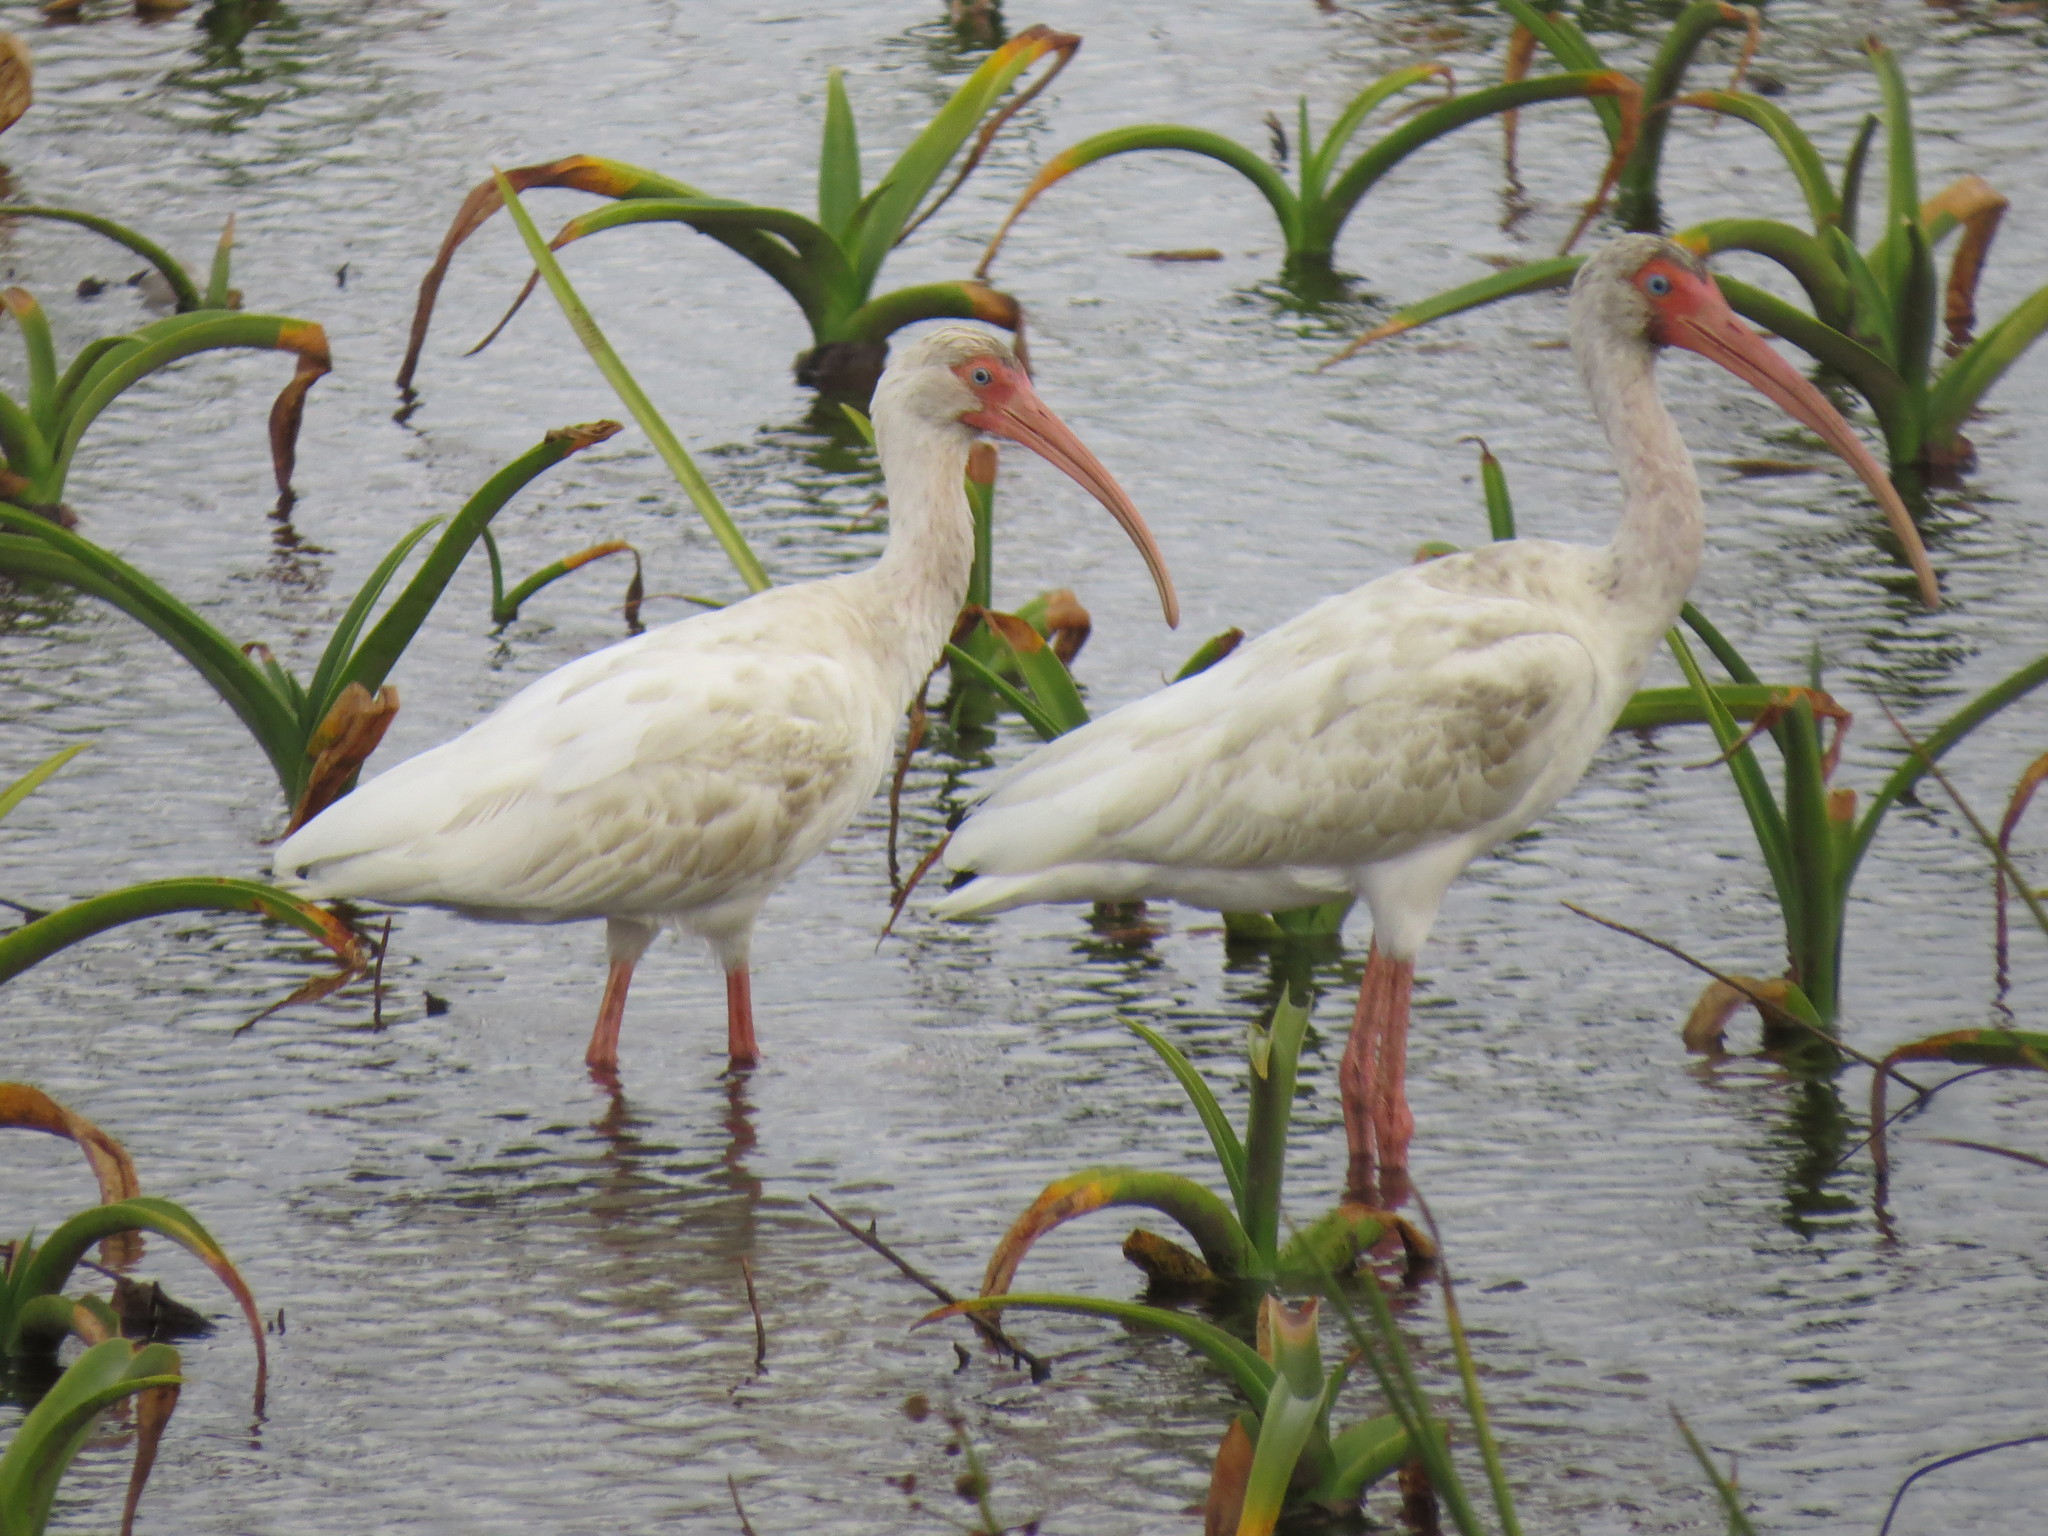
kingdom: Animalia
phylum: Chordata
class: Aves
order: Pelecaniformes
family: Threskiornithidae
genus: Eudocimus
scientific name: Eudocimus albus
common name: White ibis
